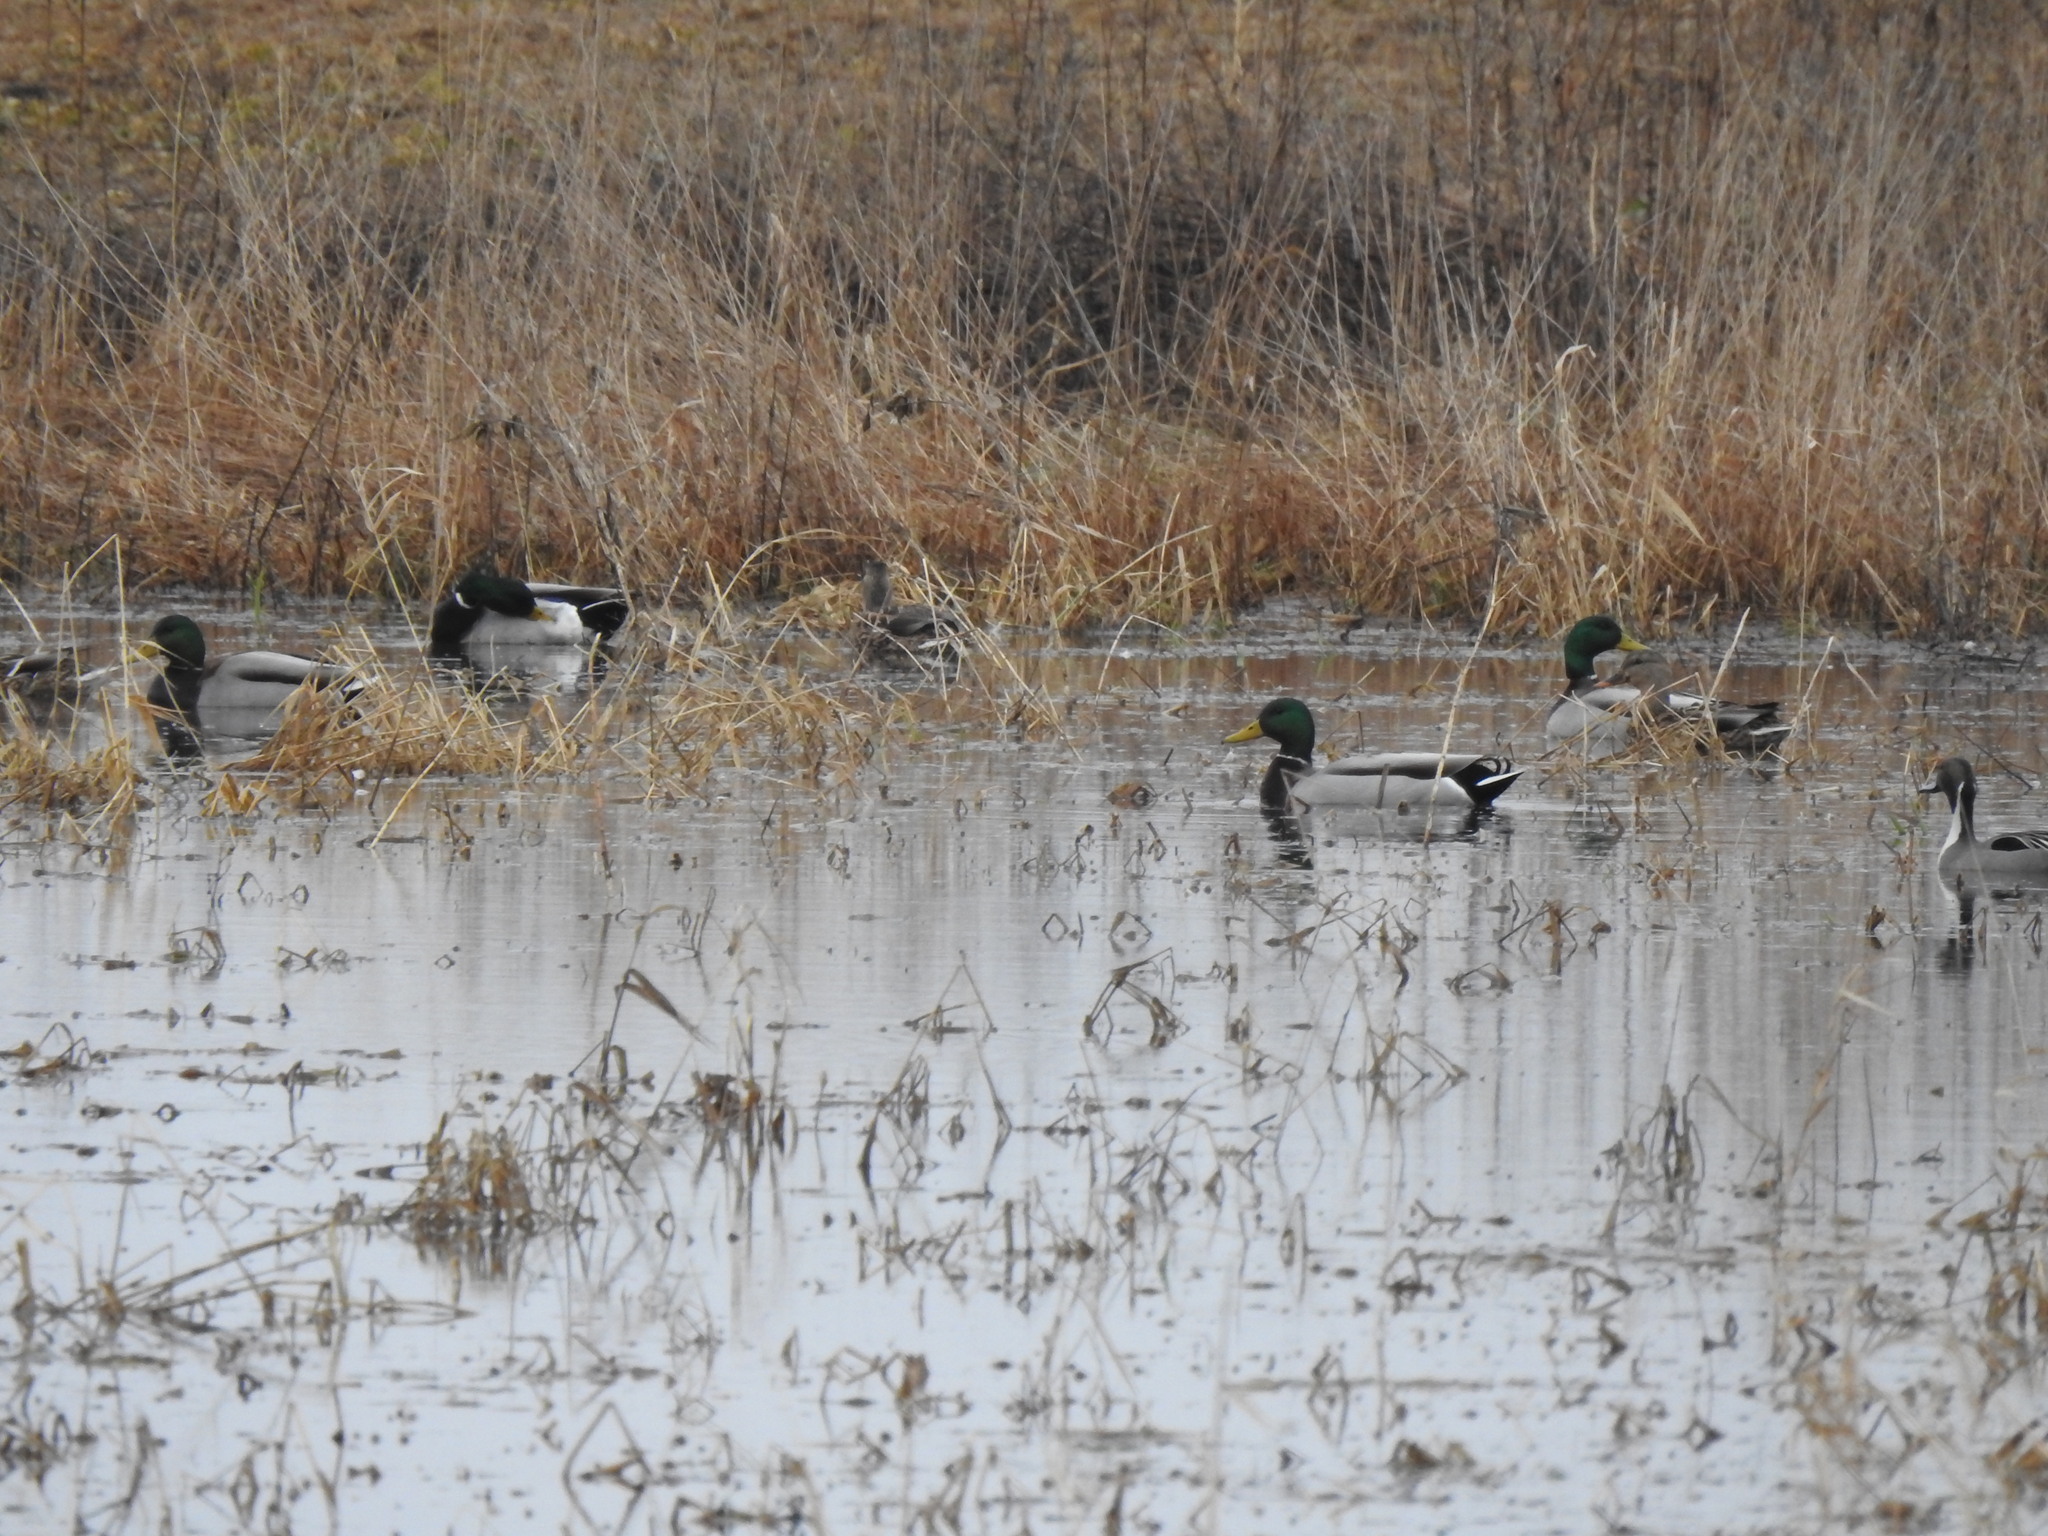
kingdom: Animalia
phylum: Chordata
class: Aves
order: Anseriformes
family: Anatidae
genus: Anas
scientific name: Anas platyrhynchos
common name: Mallard
